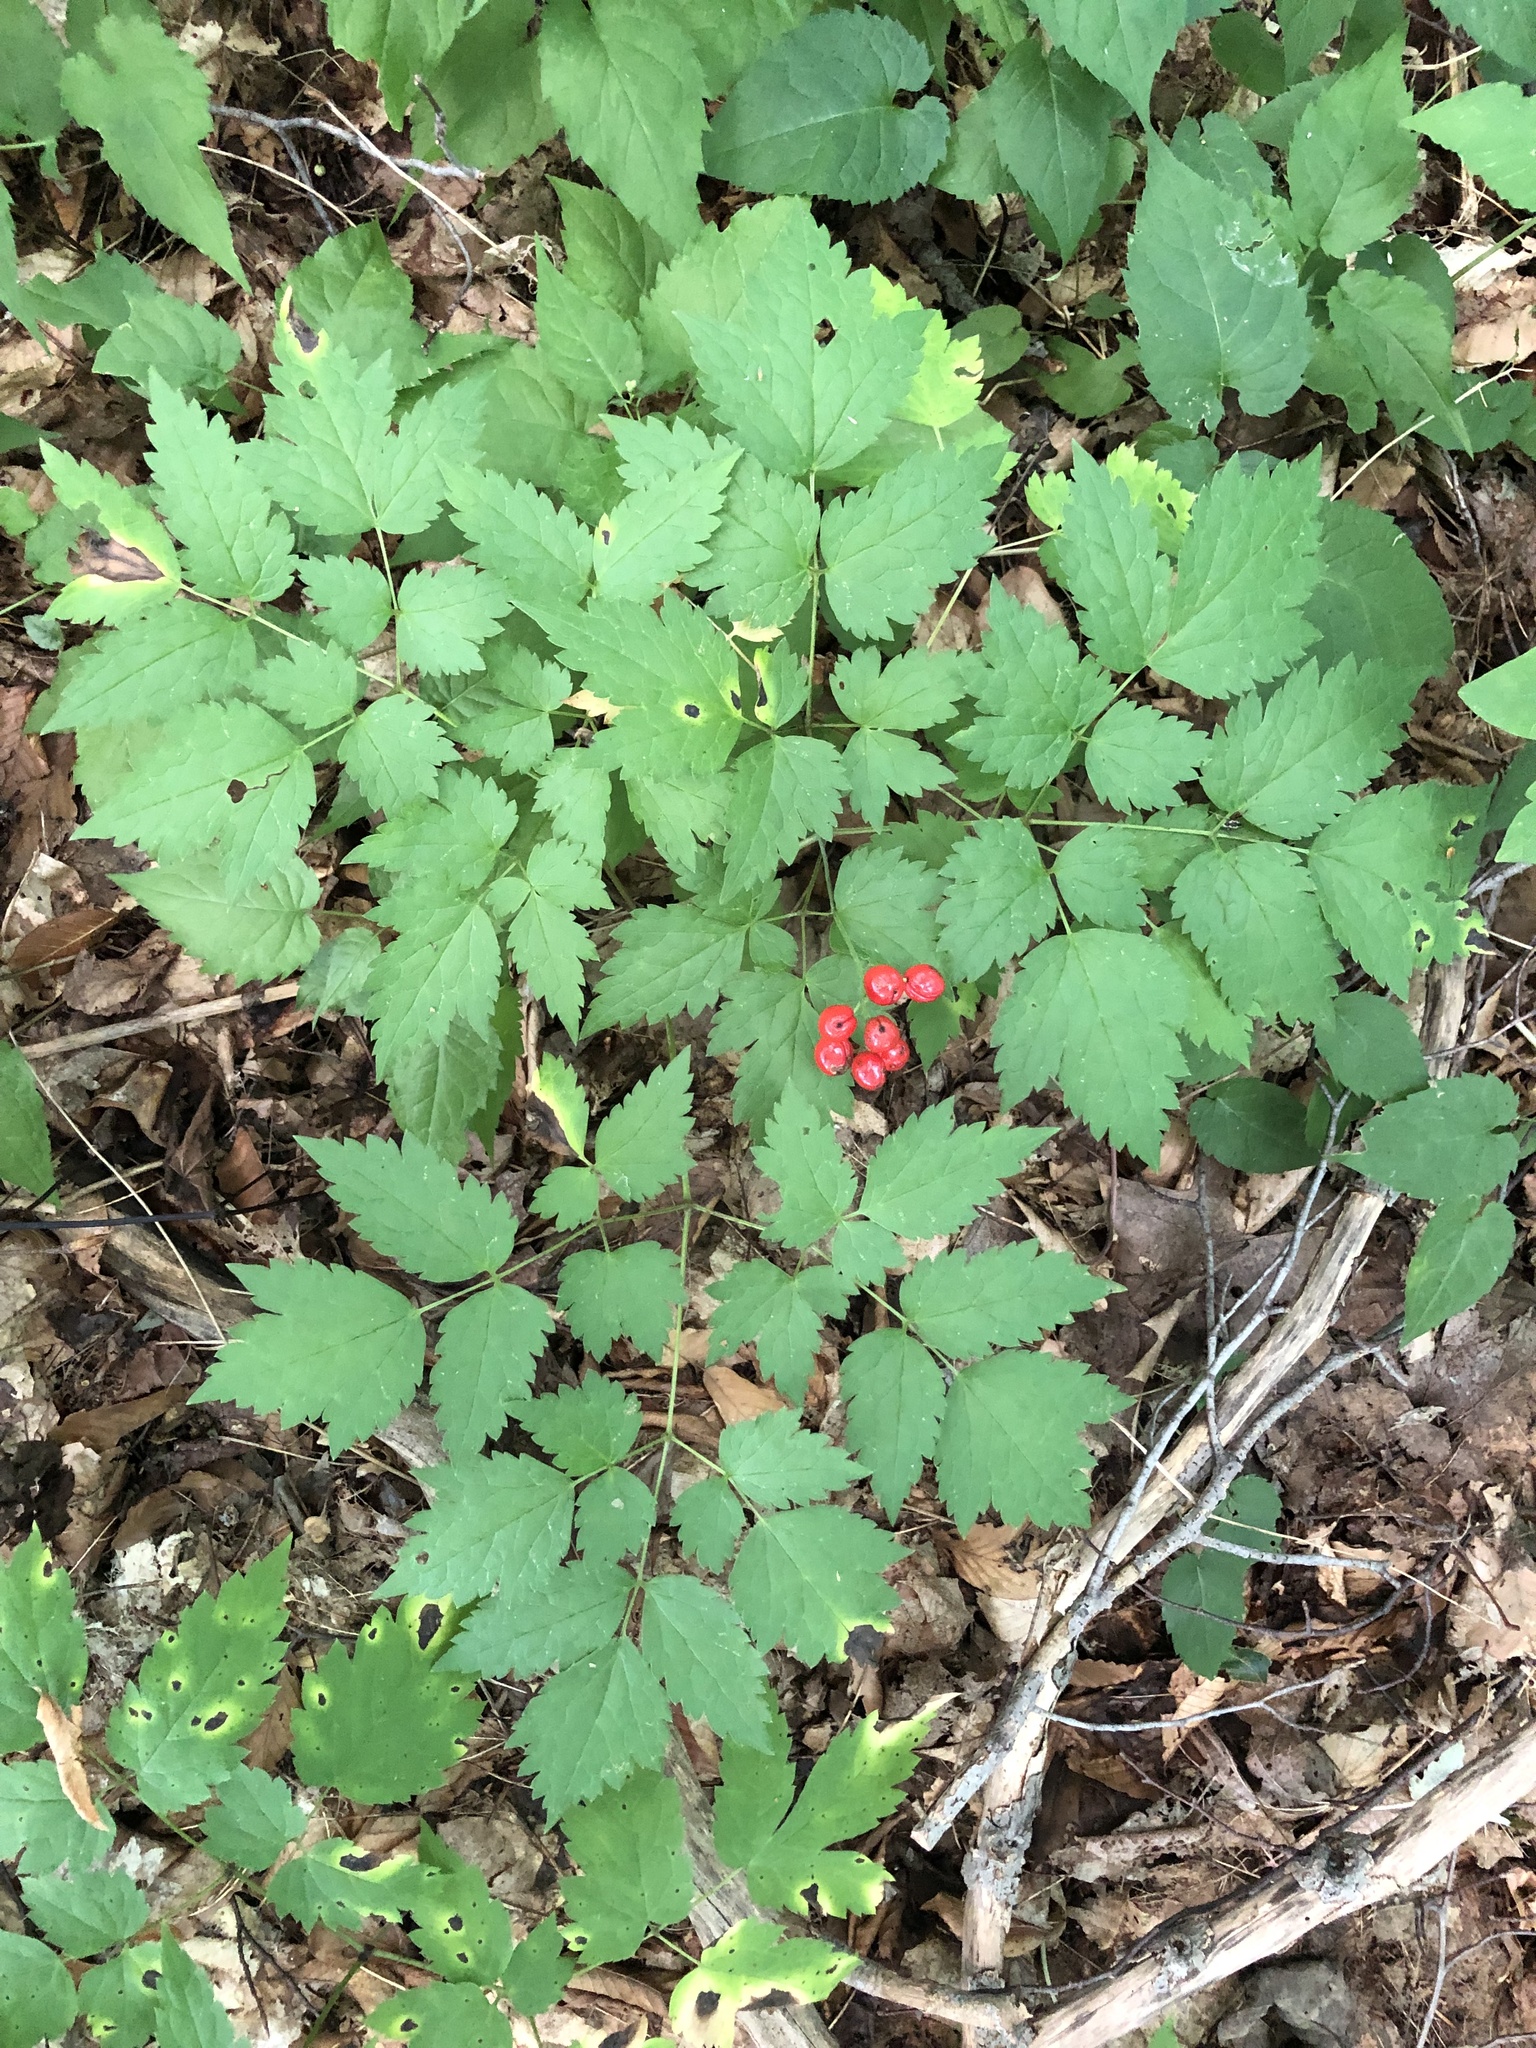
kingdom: Plantae
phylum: Tracheophyta
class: Magnoliopsida
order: Ranunculales
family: Ranunculaceae
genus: Actaea
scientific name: Actaea rubra
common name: Red baneberry
